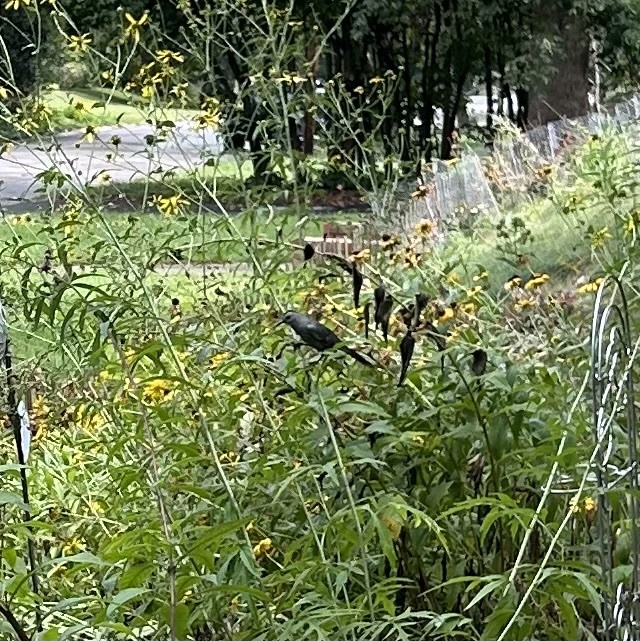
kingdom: Animalia
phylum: Chordata
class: Aves
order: Passeriformes
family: Mimidae
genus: Dumetella
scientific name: Dumetella carolinensis
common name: Gray catbird
